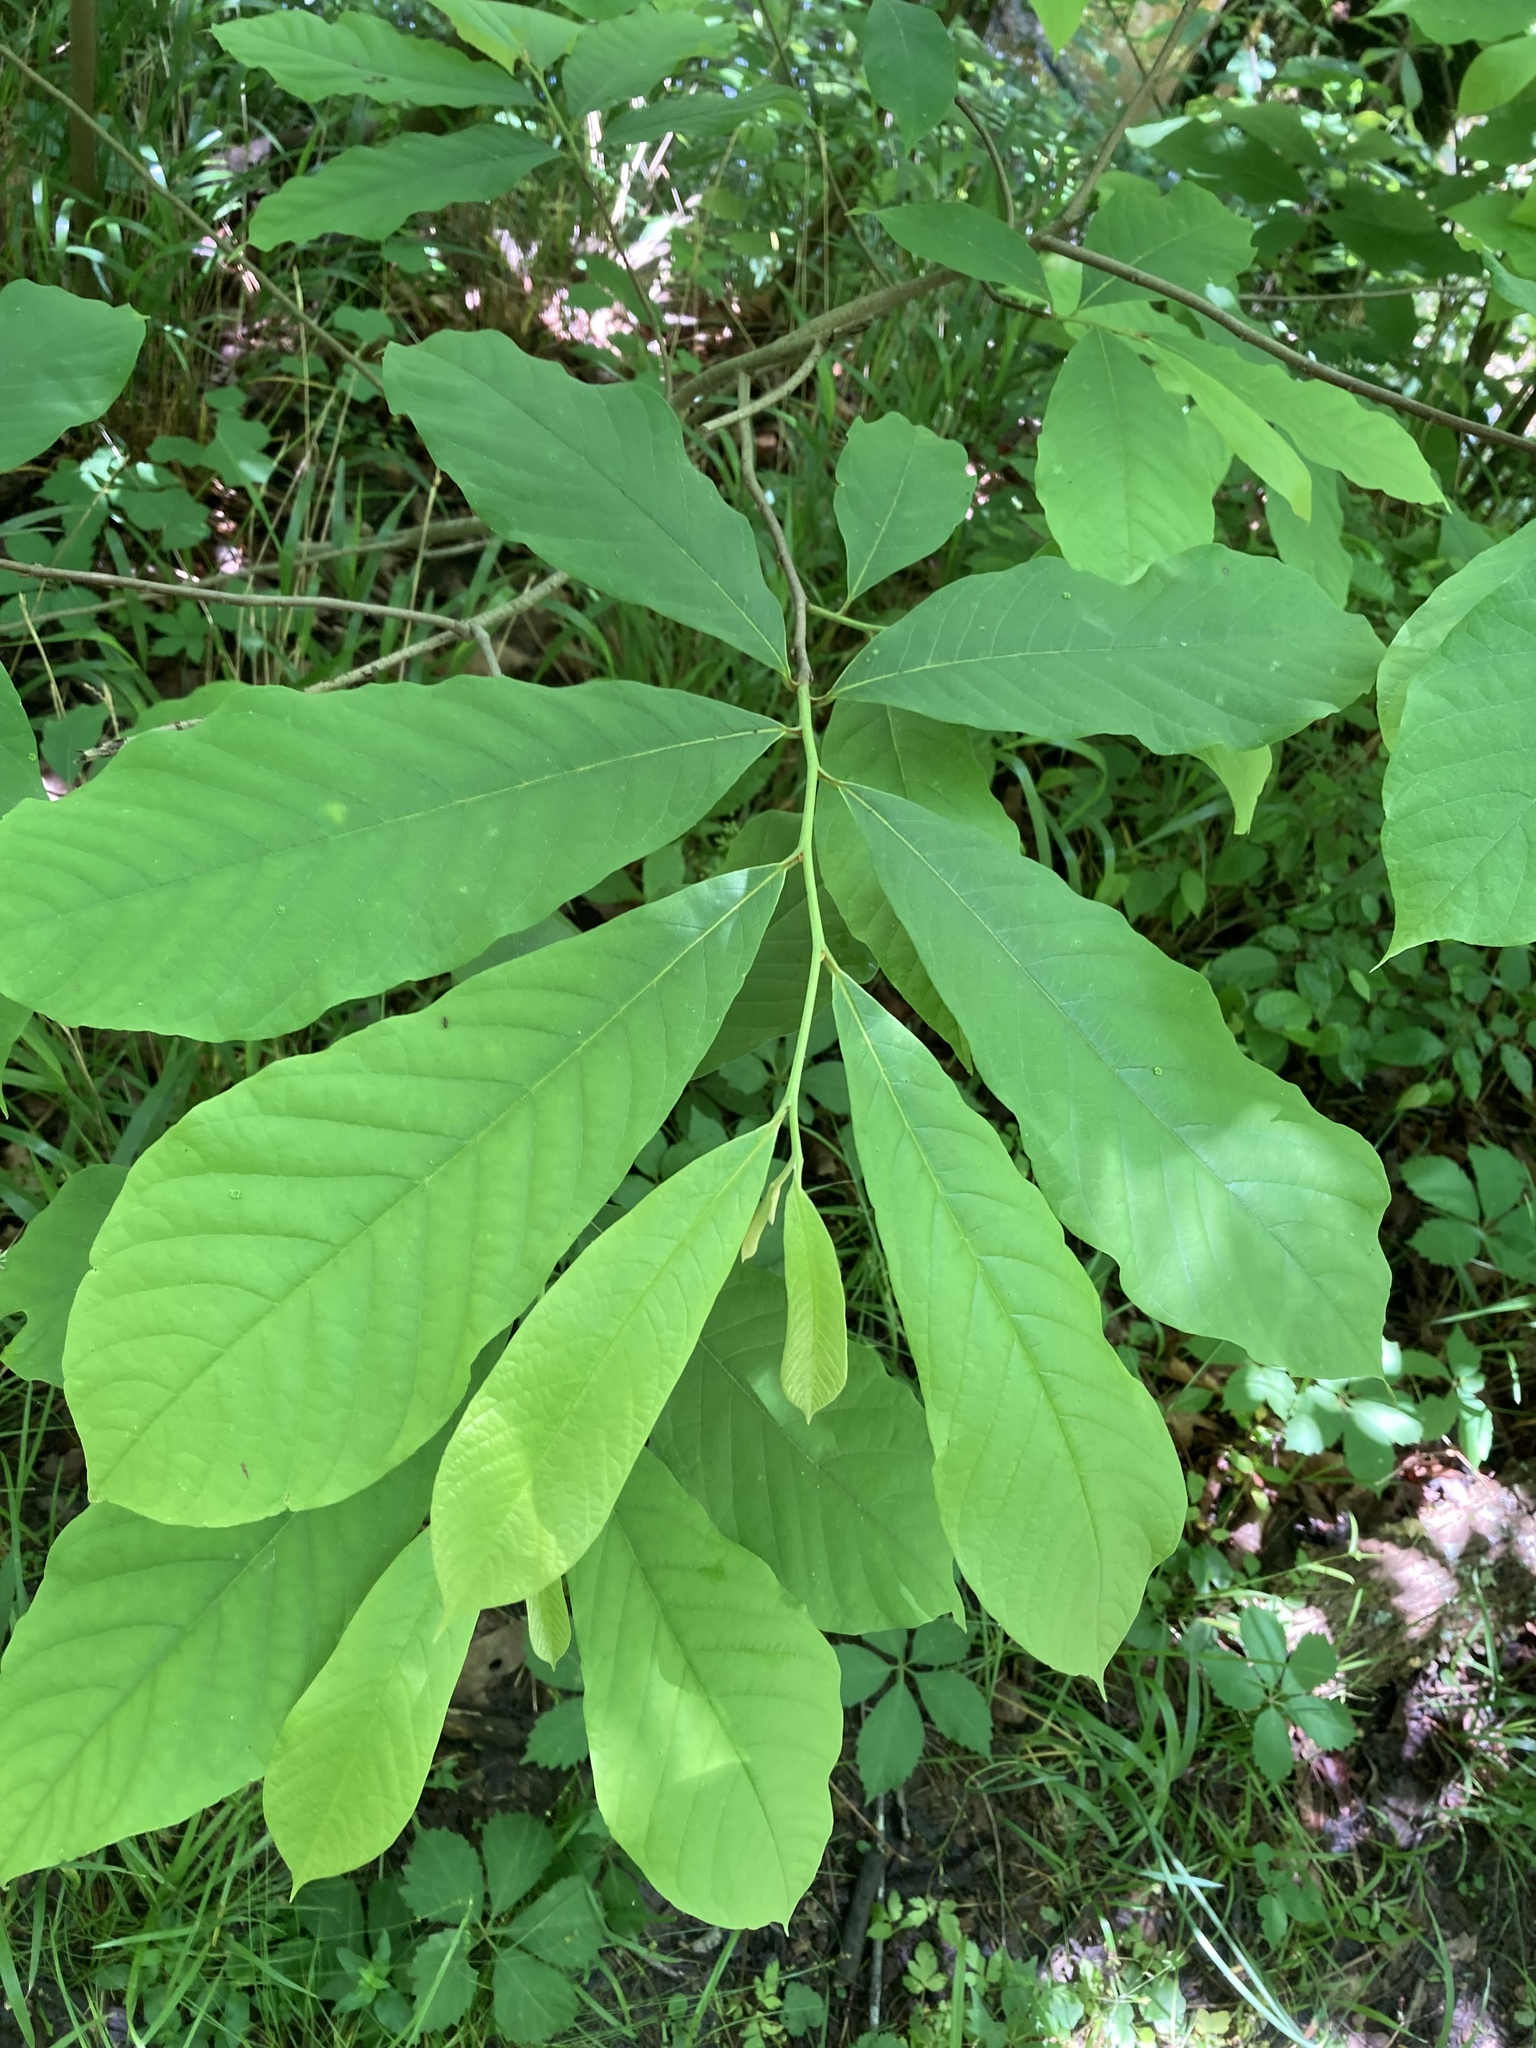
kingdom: Plantae
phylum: Tracheophyta
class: Magnoliopsida
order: Magnoliales
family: Annonaceae
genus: Asimina
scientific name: Asimina triloba
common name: Dog-banana
